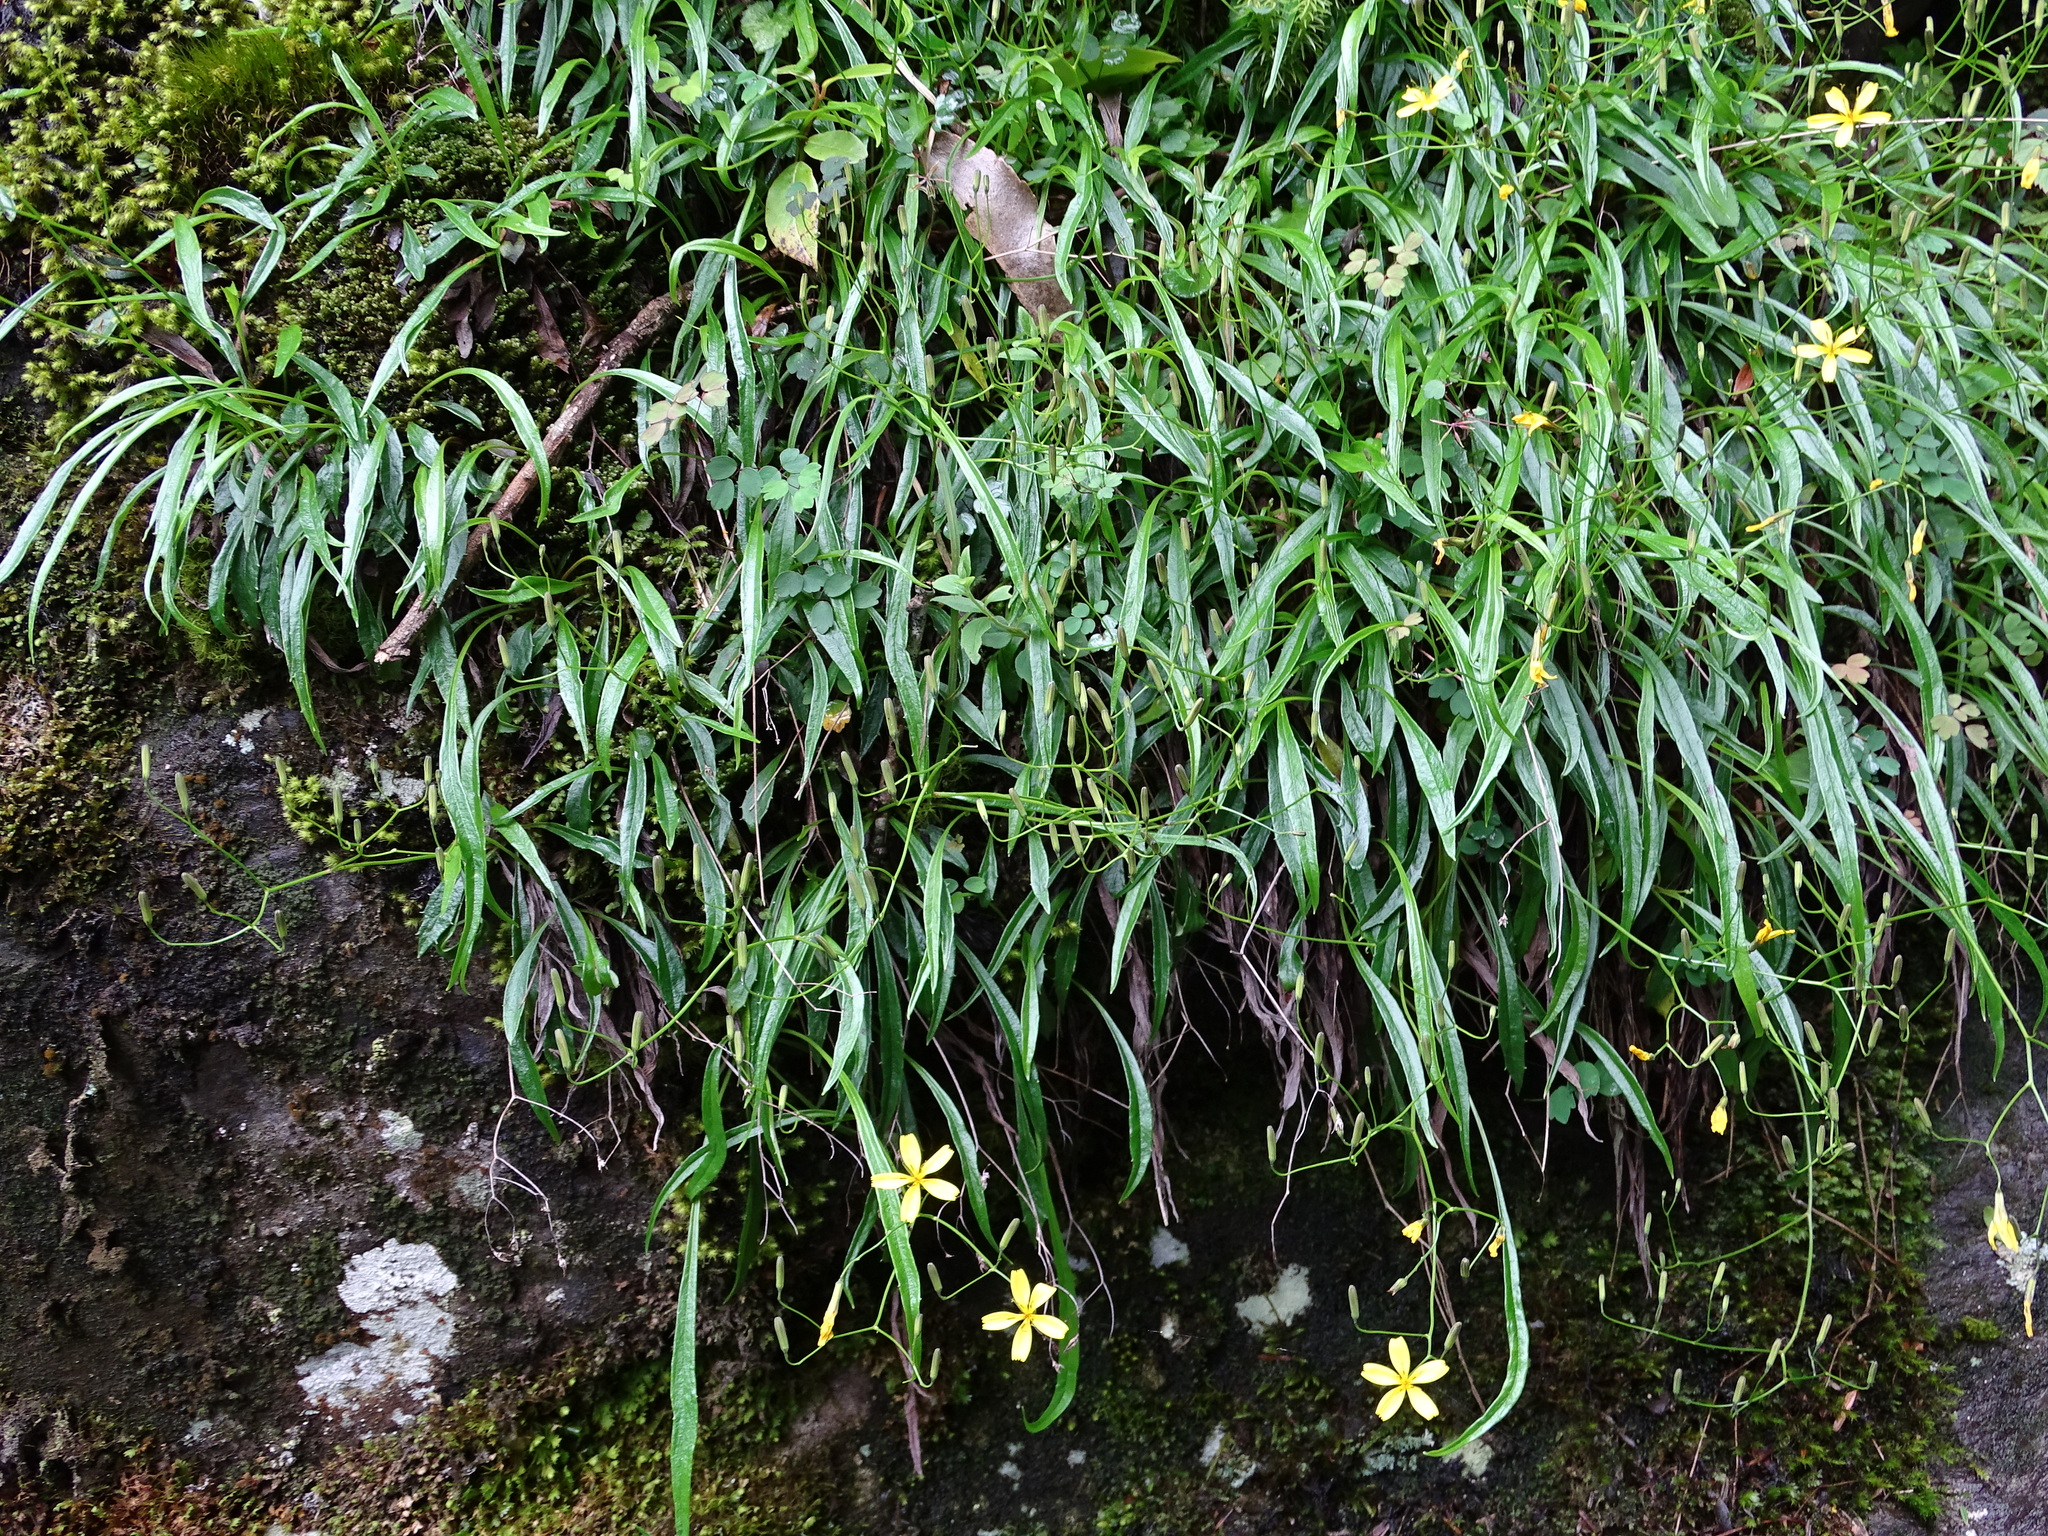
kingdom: Plantae
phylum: Tracheophyta
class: Magnoliopsida
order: Asterales
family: Asteraceae
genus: Ixeridium
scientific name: Ixeridium transnokoense
